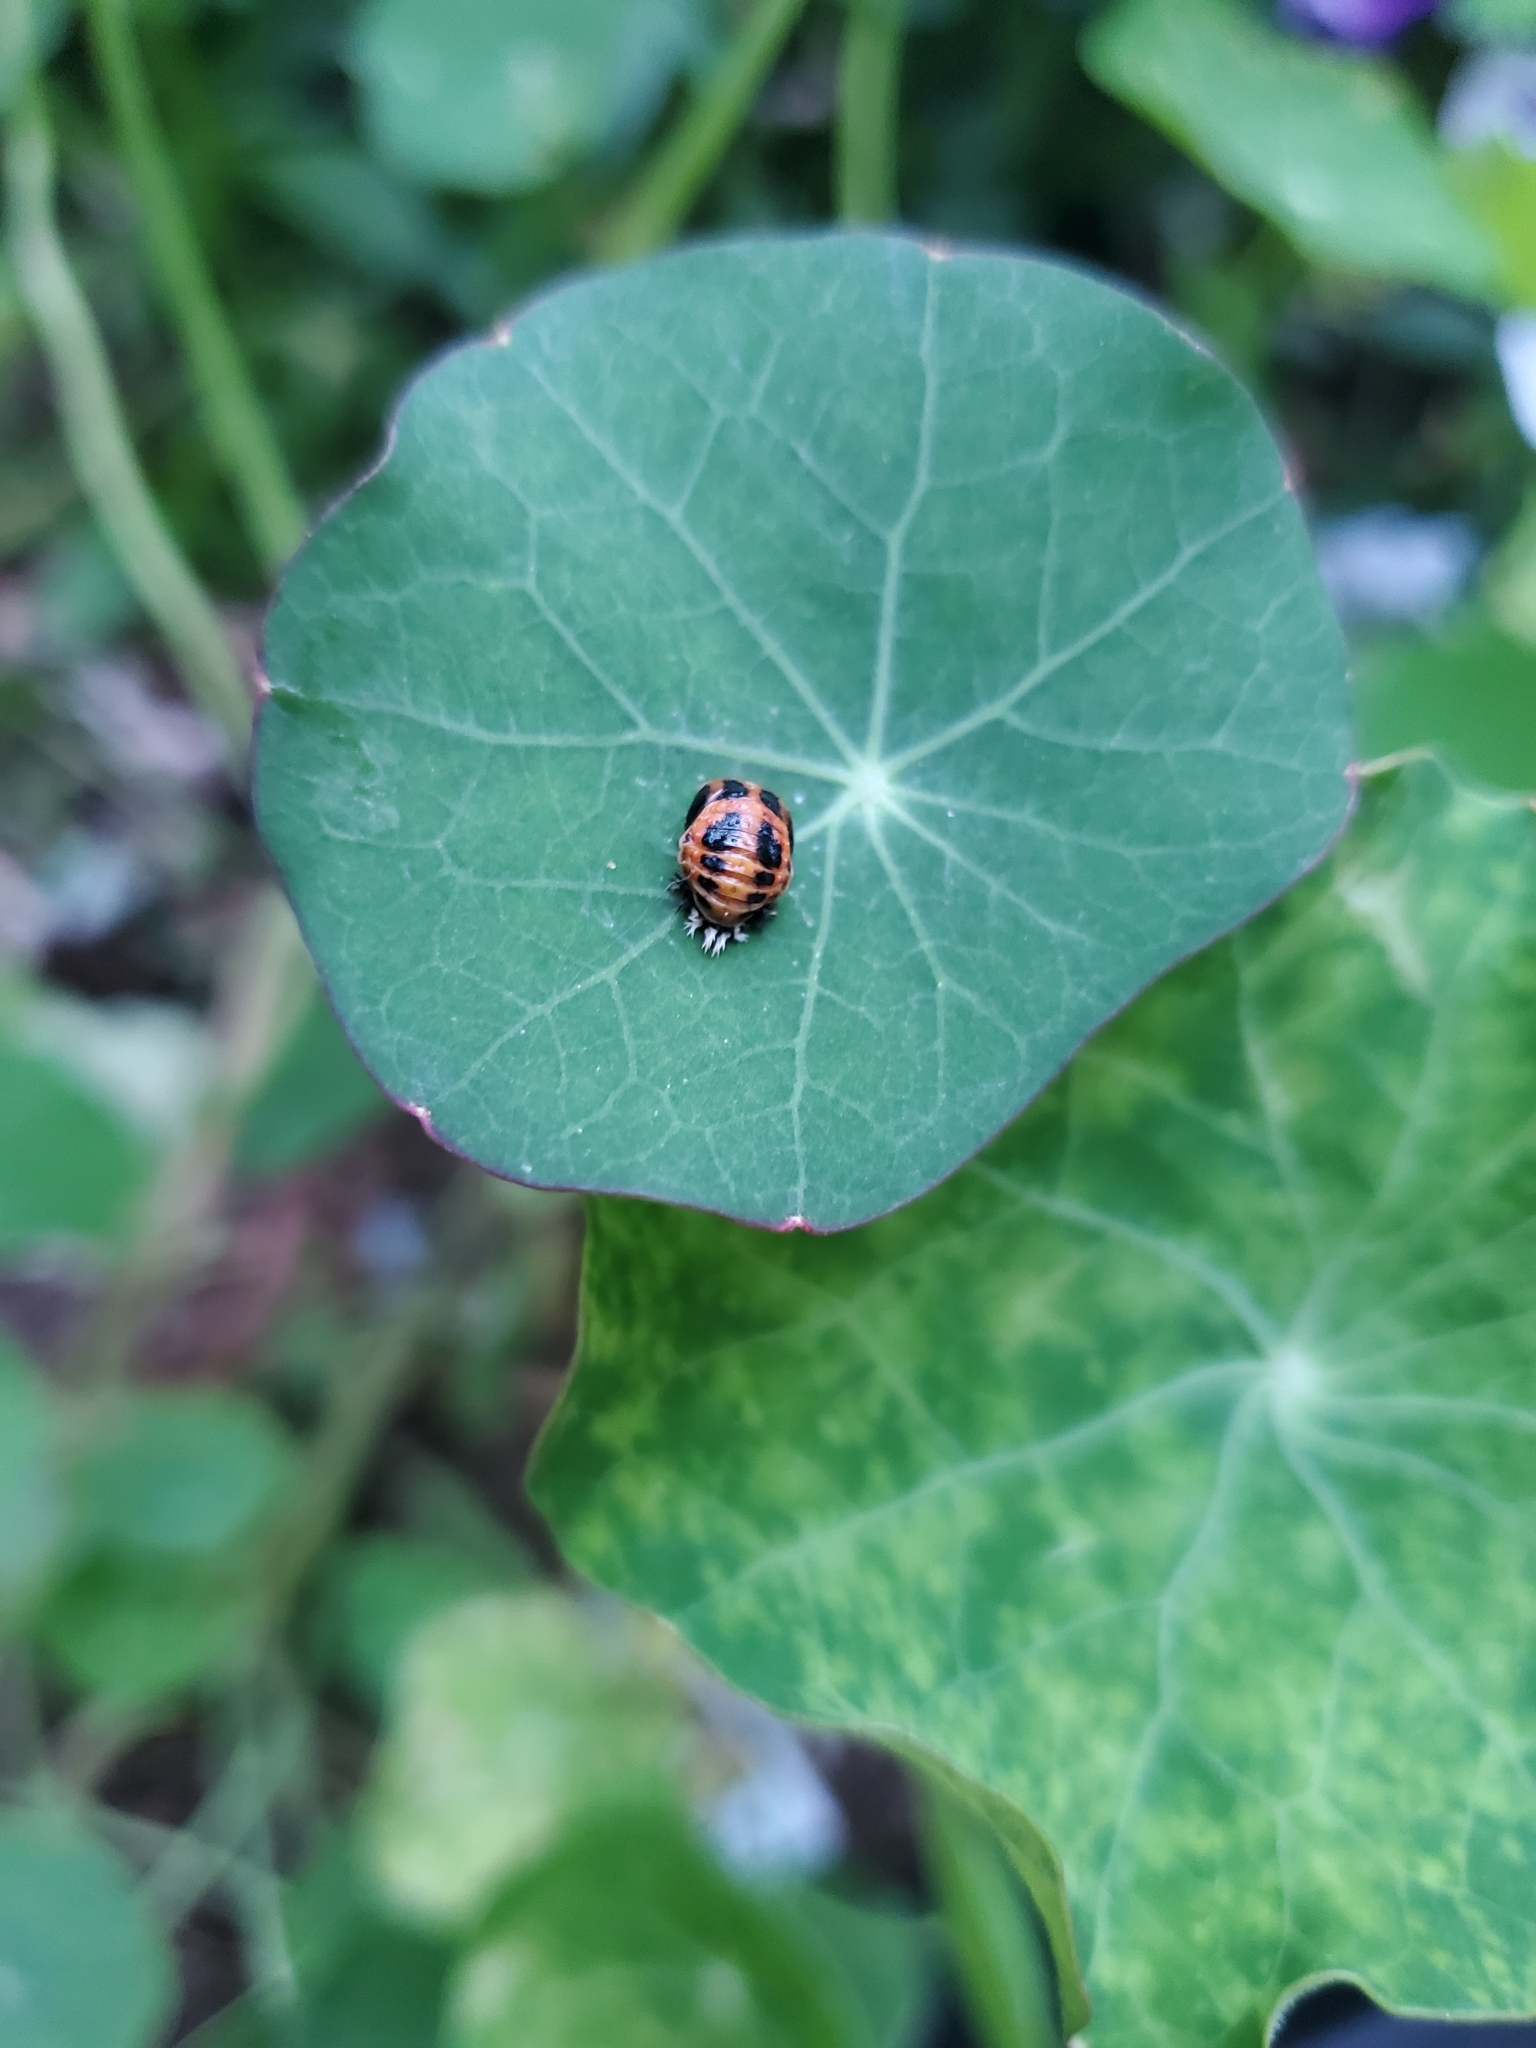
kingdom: Animalia
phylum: Arthropoda
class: Insecta
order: Coleoptera
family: Coccinellidae
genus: Harmonia
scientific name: Harmonia axyridis
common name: Harlequin ladybird
